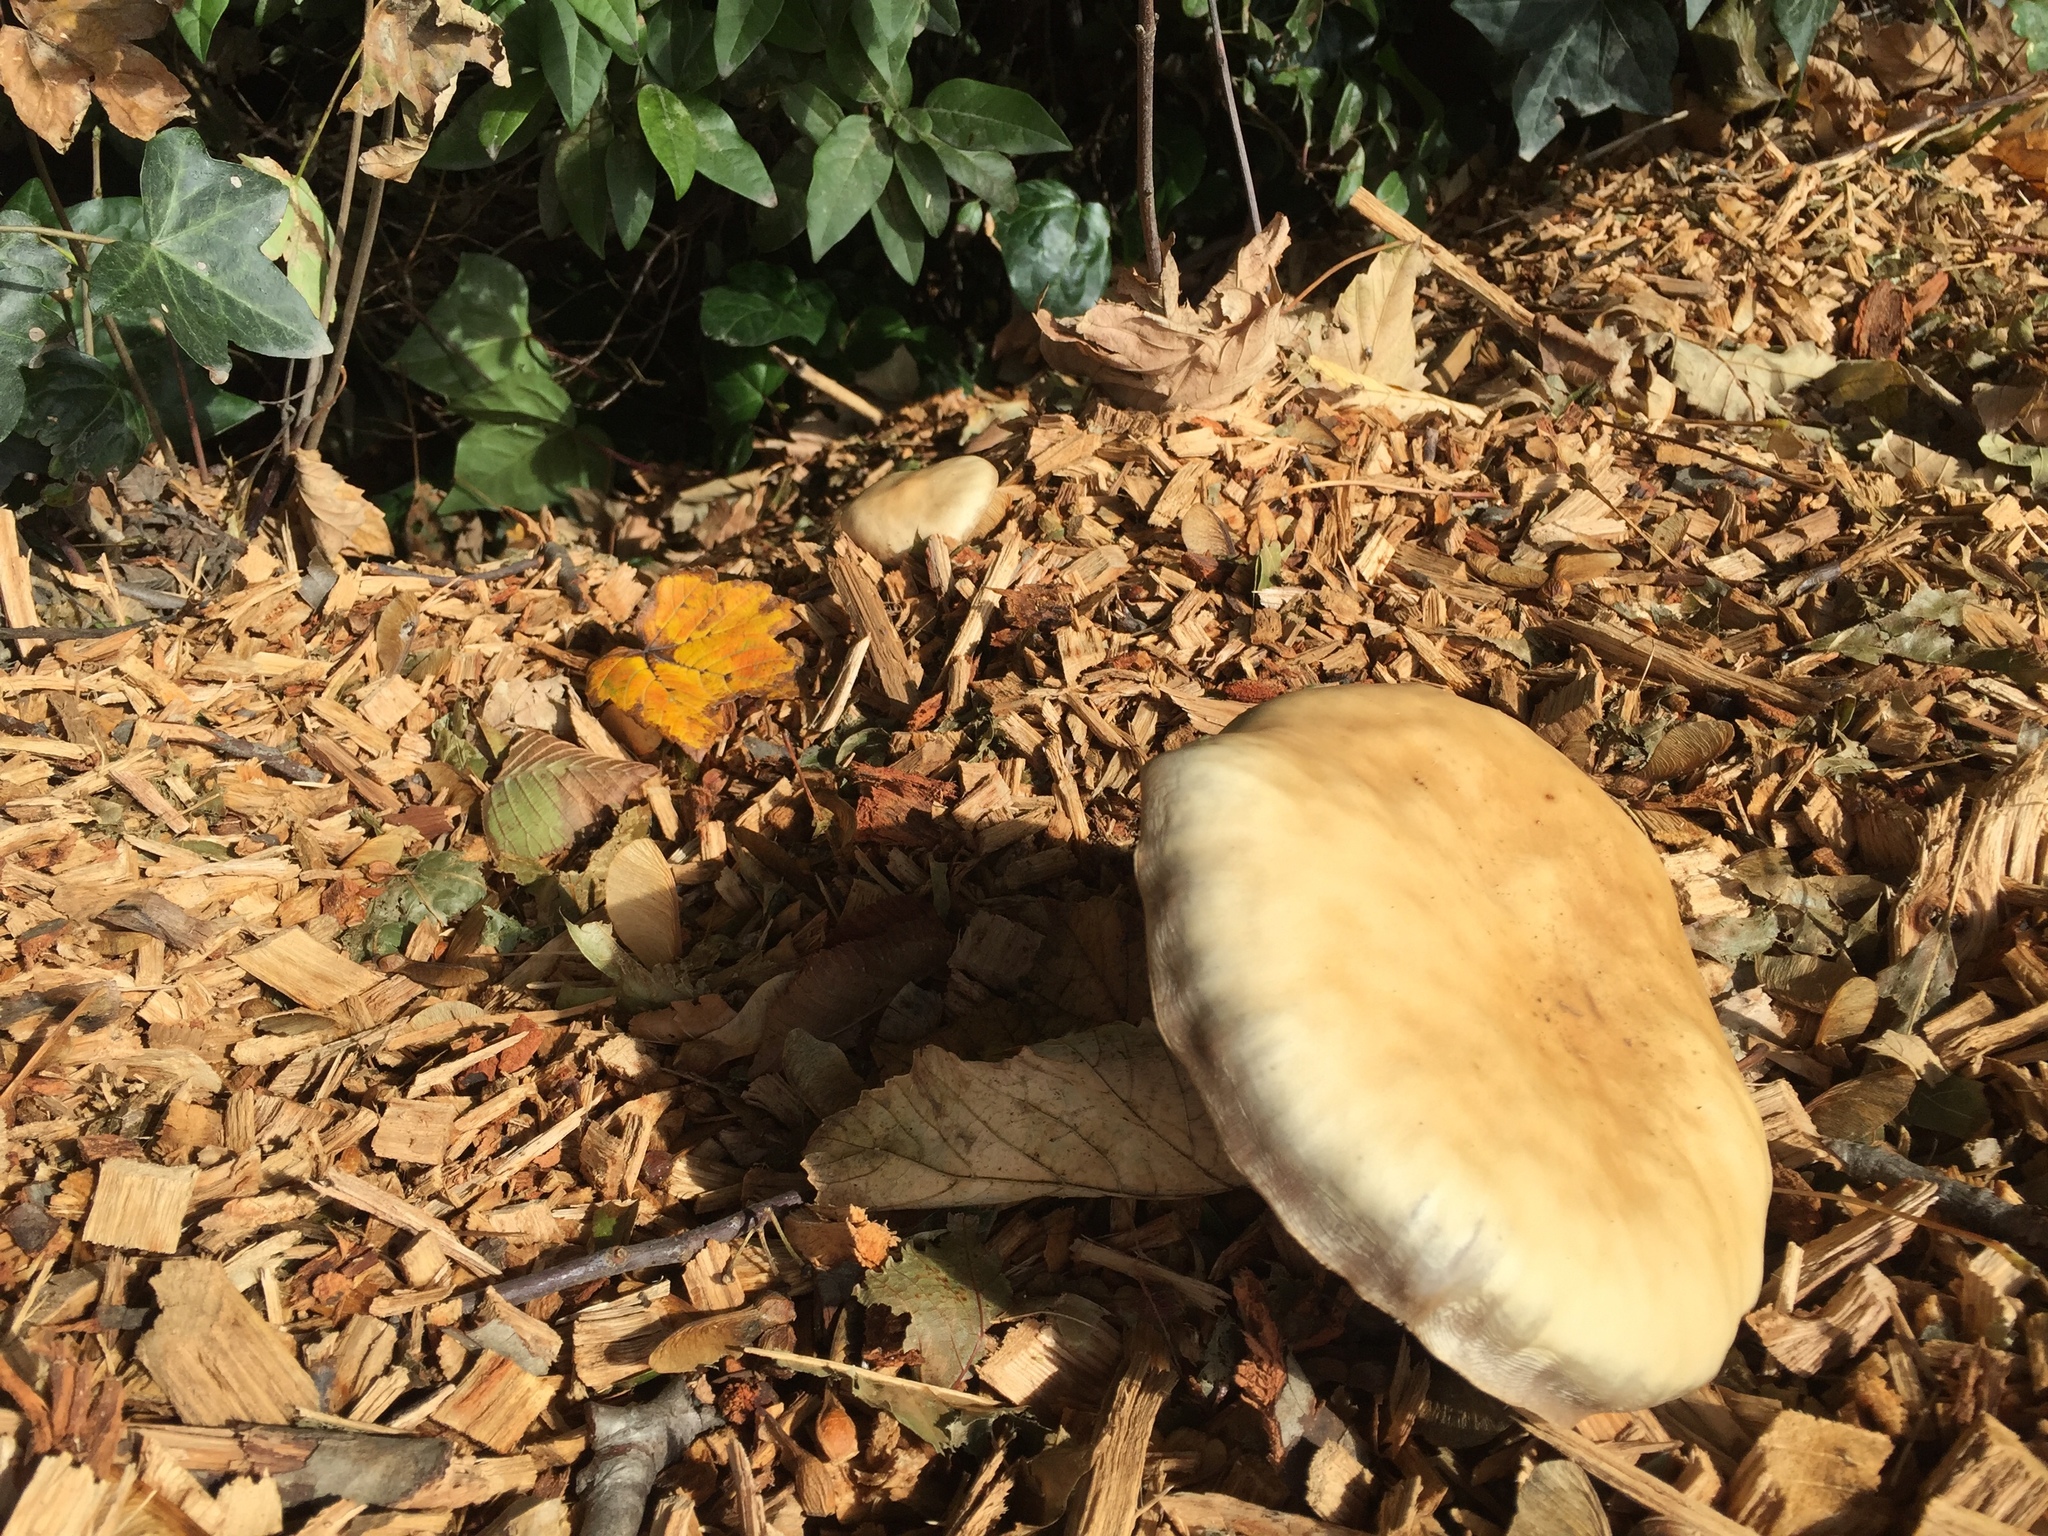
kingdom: Fungi
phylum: Basidiomycota
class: Agaricomycetes
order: Agaricales
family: Tubariaceae
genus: Cyclocybe
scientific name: Cyclocybe parasitica
